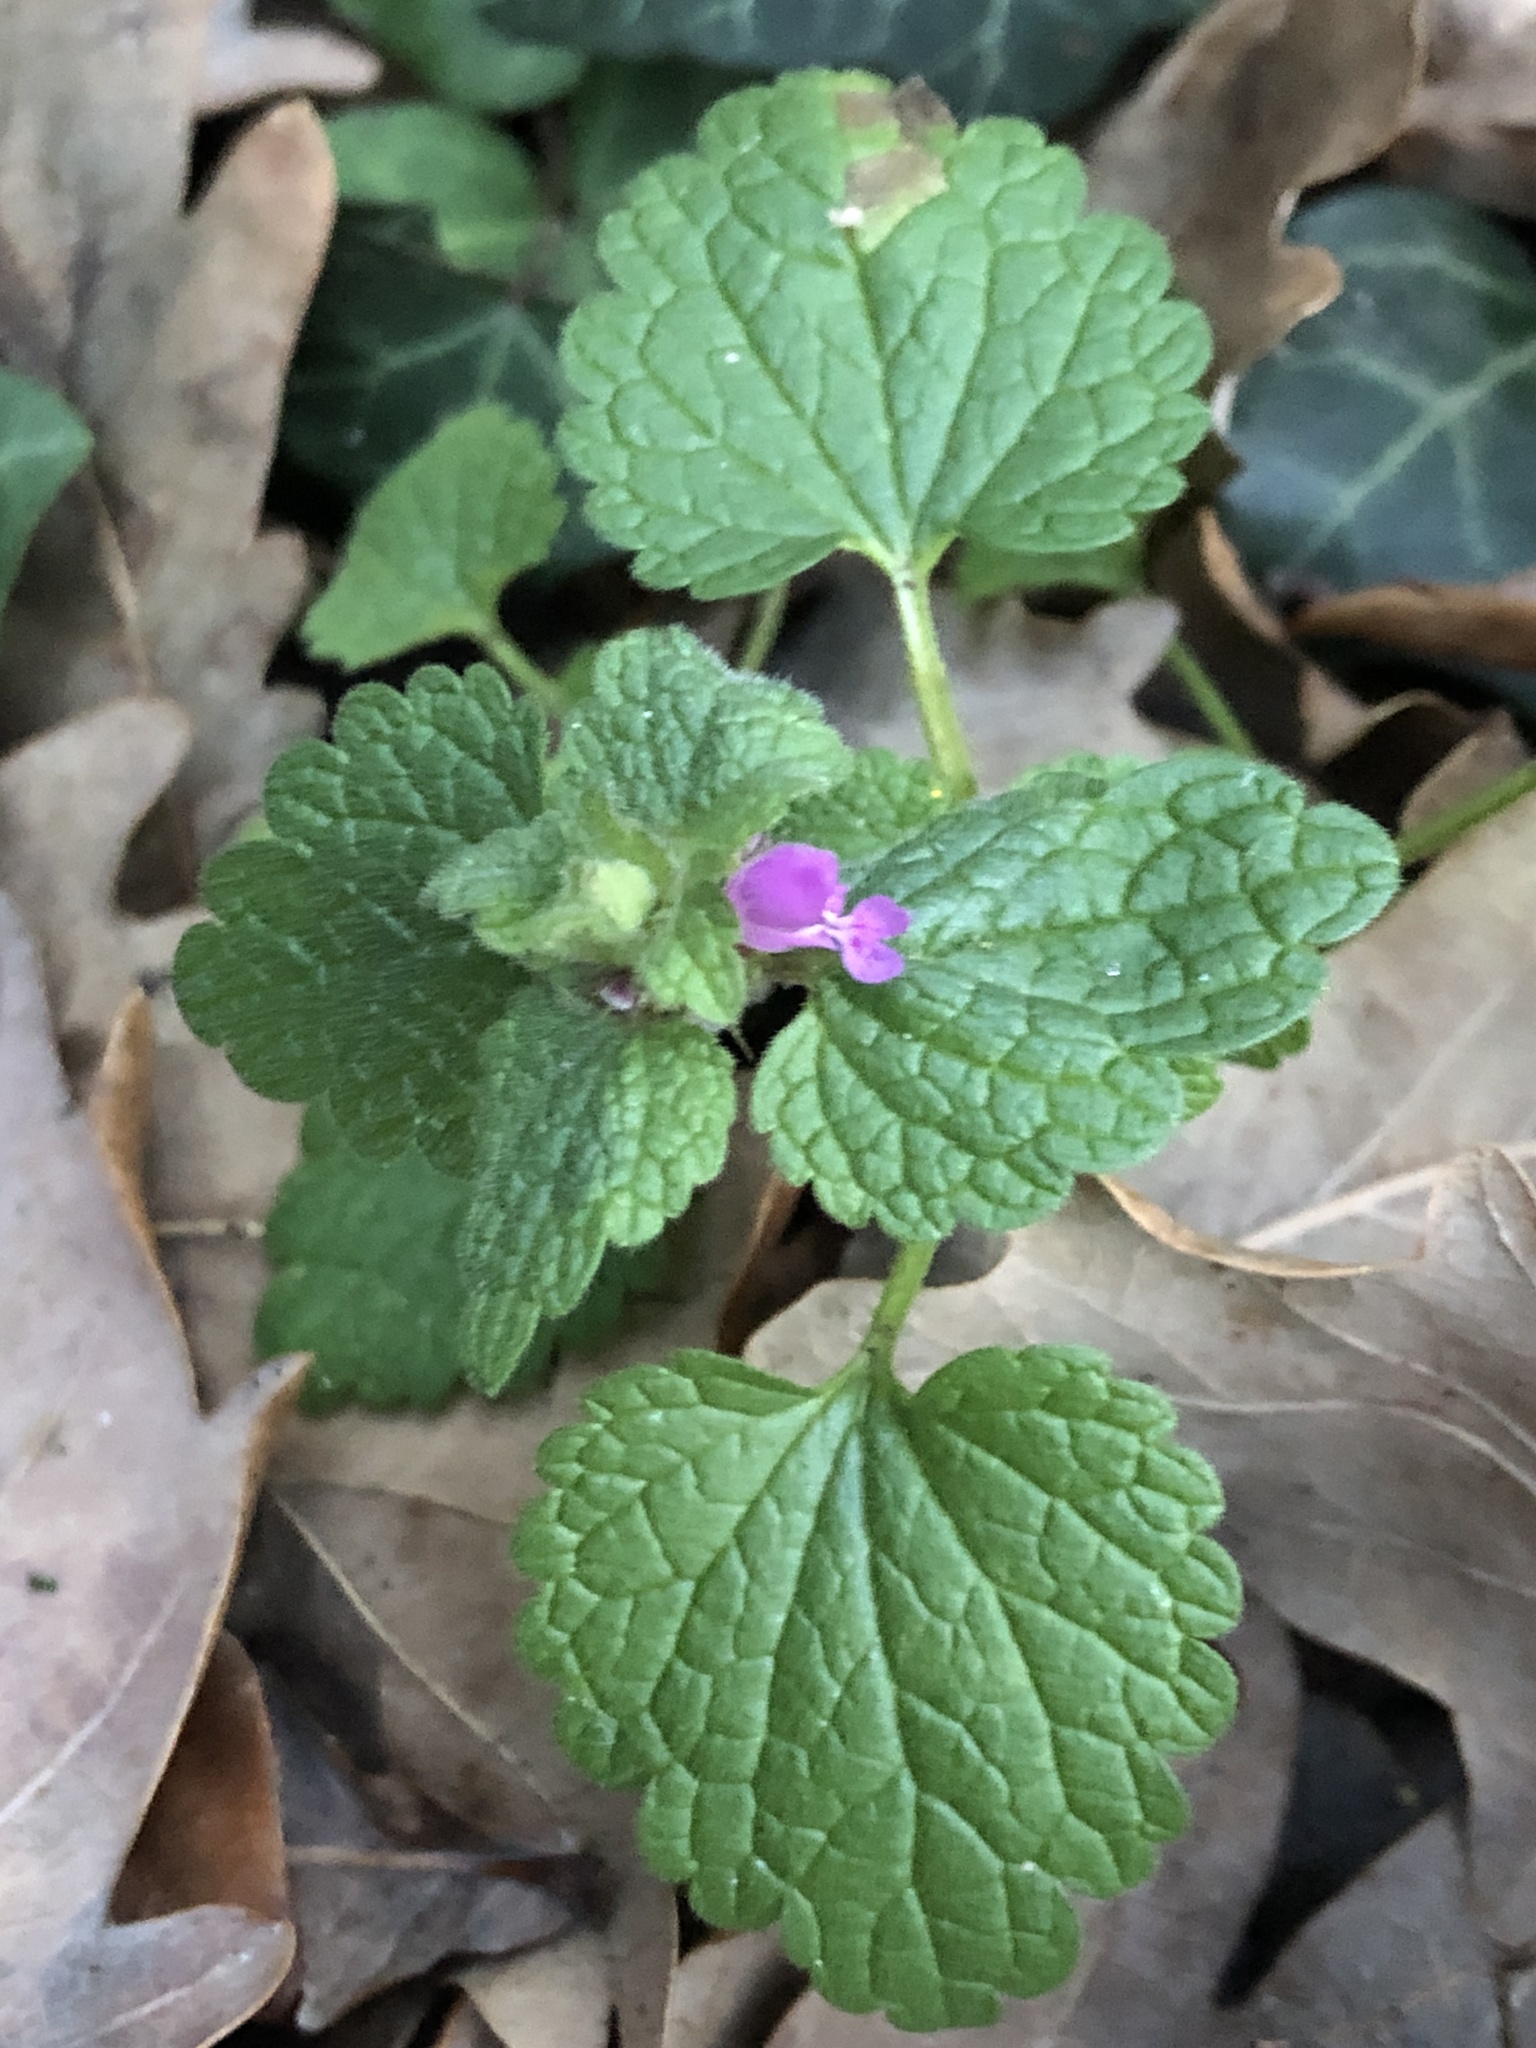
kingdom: Plantae
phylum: Tracheophyta
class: Magnoliopsida
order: Lamiales
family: Lamiaceae
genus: Lamium
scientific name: Lamium purpureum
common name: Red dead-nettle
